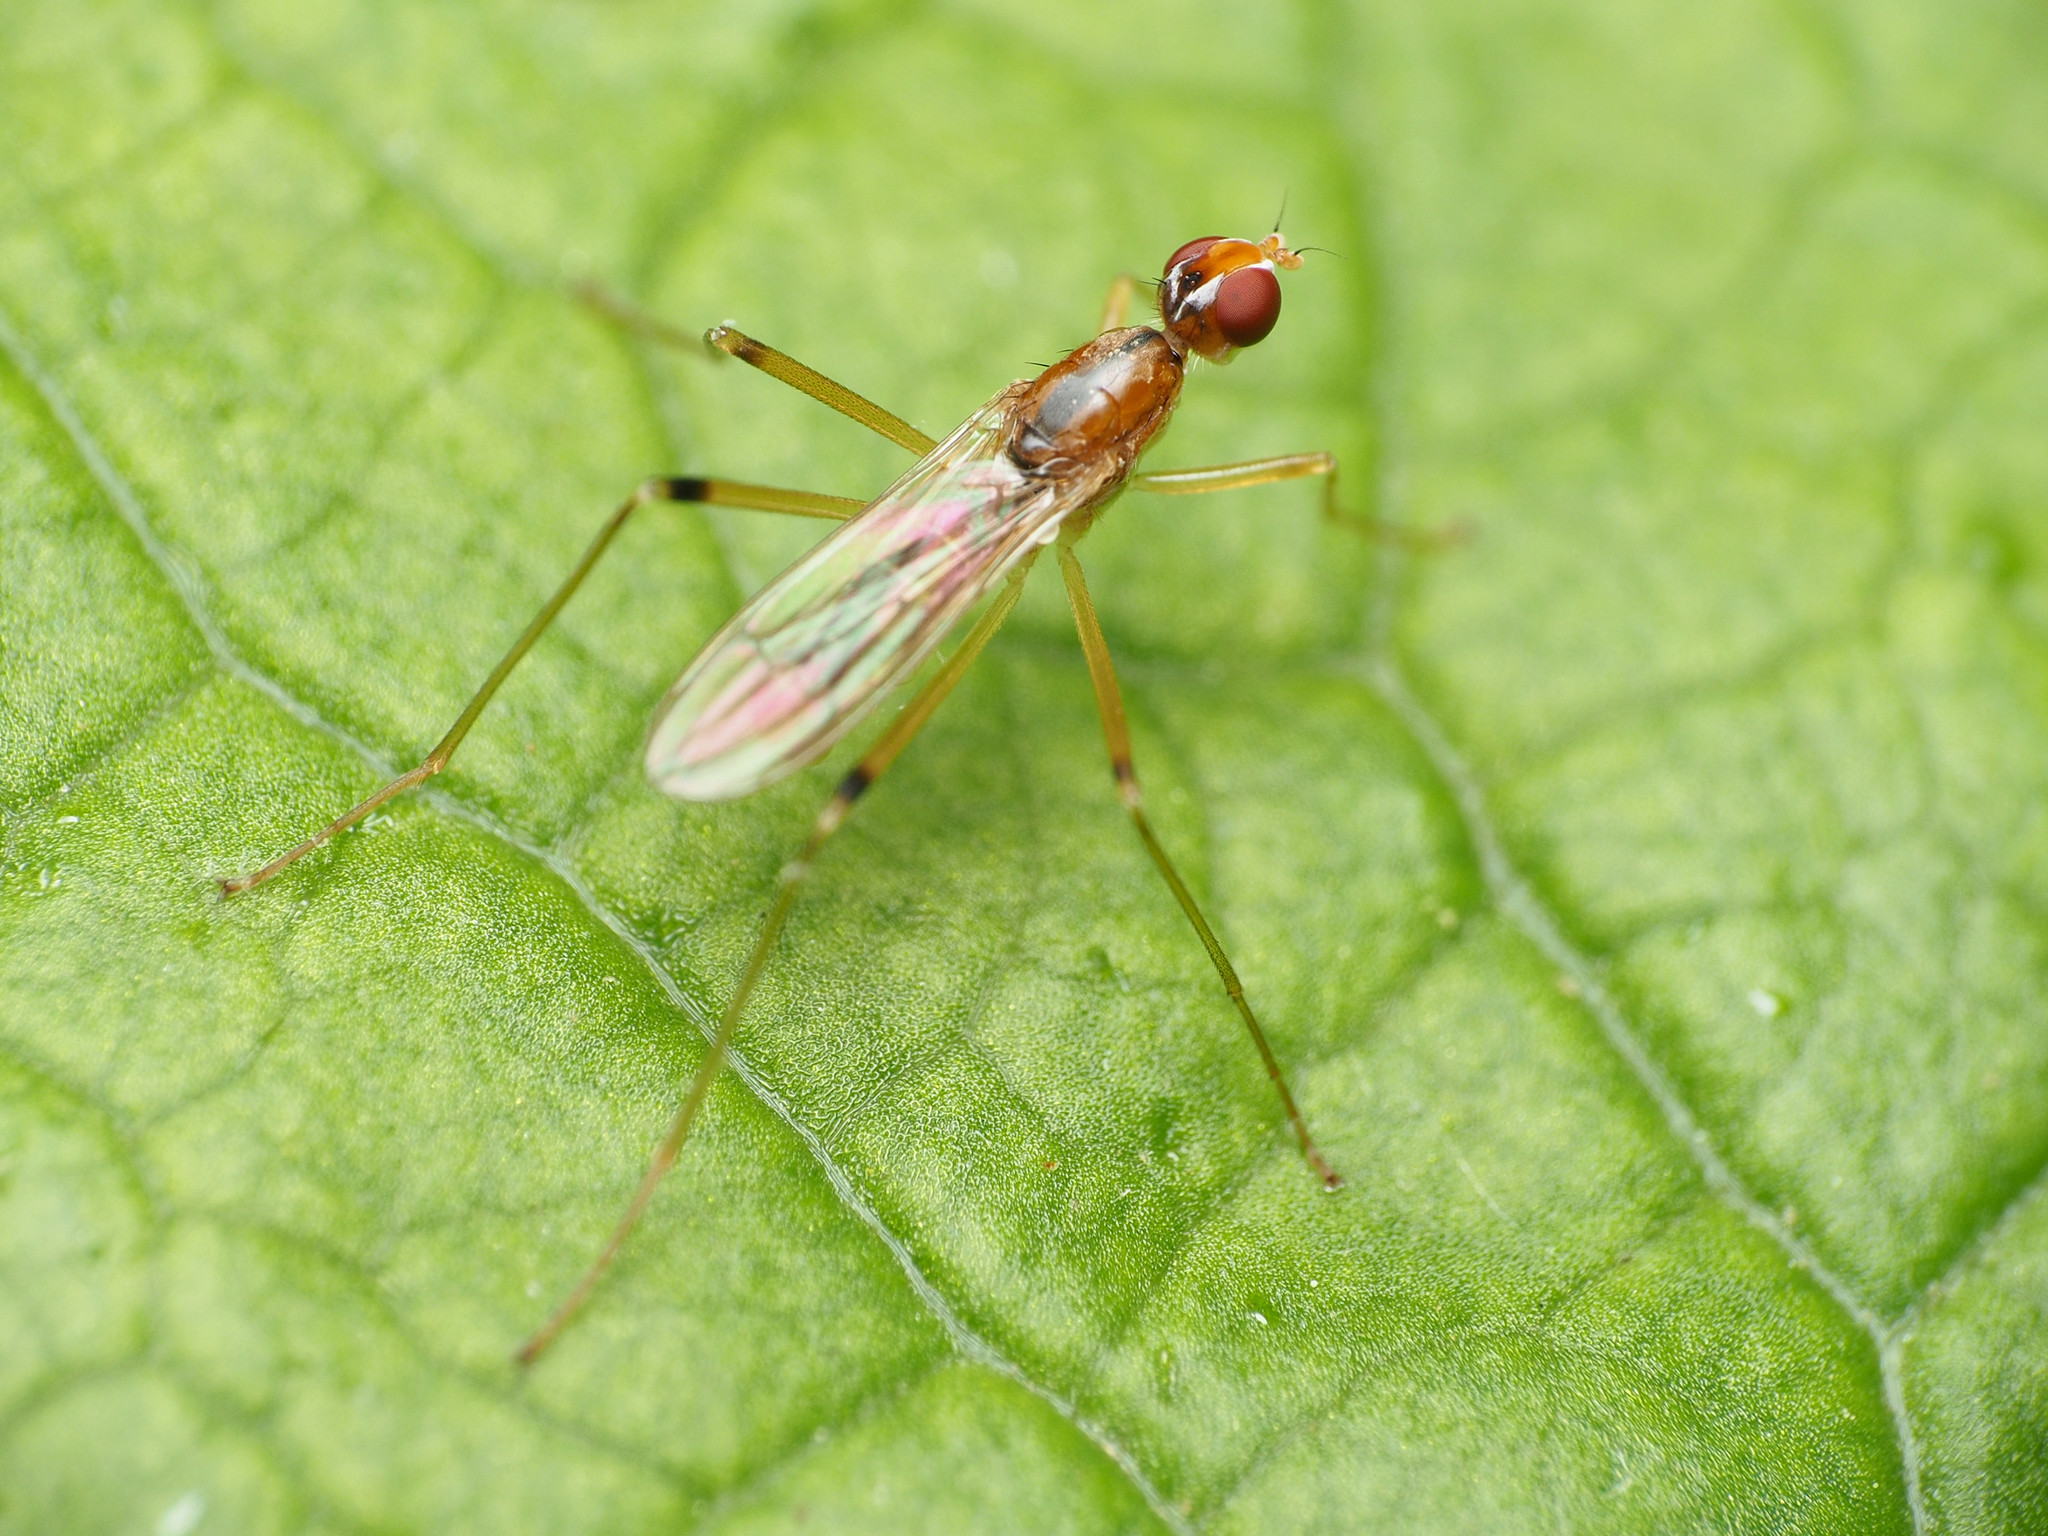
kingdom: Animalia
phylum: Arthropoda
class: Insecta
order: Diptera
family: Micropezidae
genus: Compsobata
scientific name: Compsobata univitta
